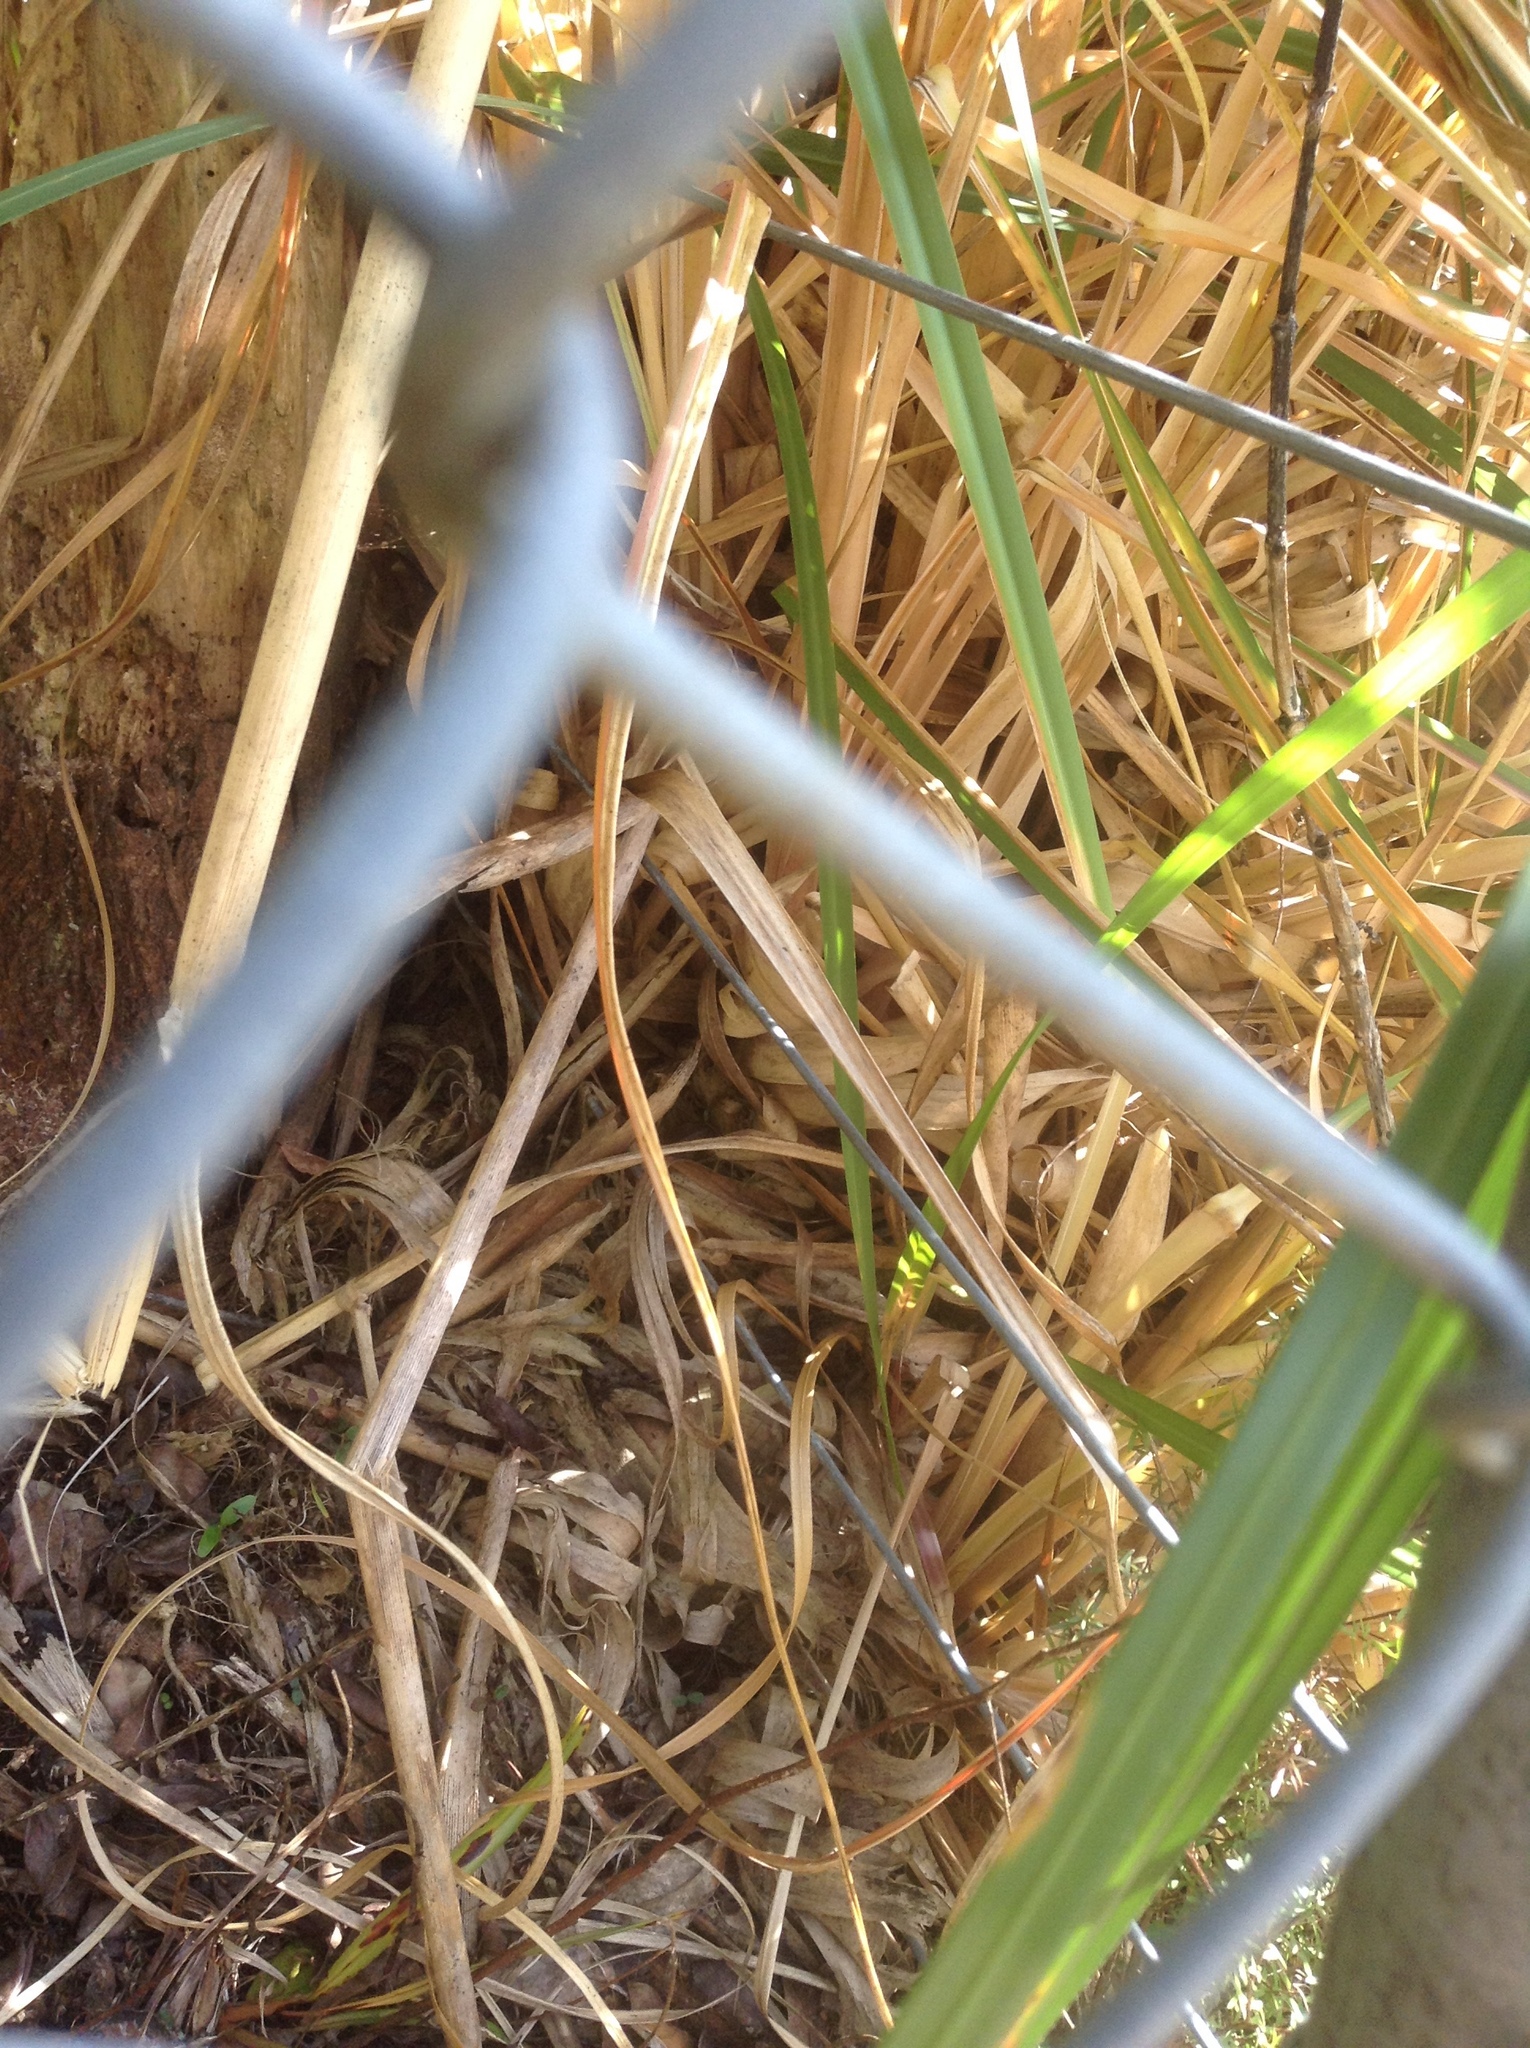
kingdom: Plantae
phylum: Tracheophyta
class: Liliopsida
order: Poales
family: Poaceae
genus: Cortaderia
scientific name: Cortaderia selloana
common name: Uruguayan pampas grass
